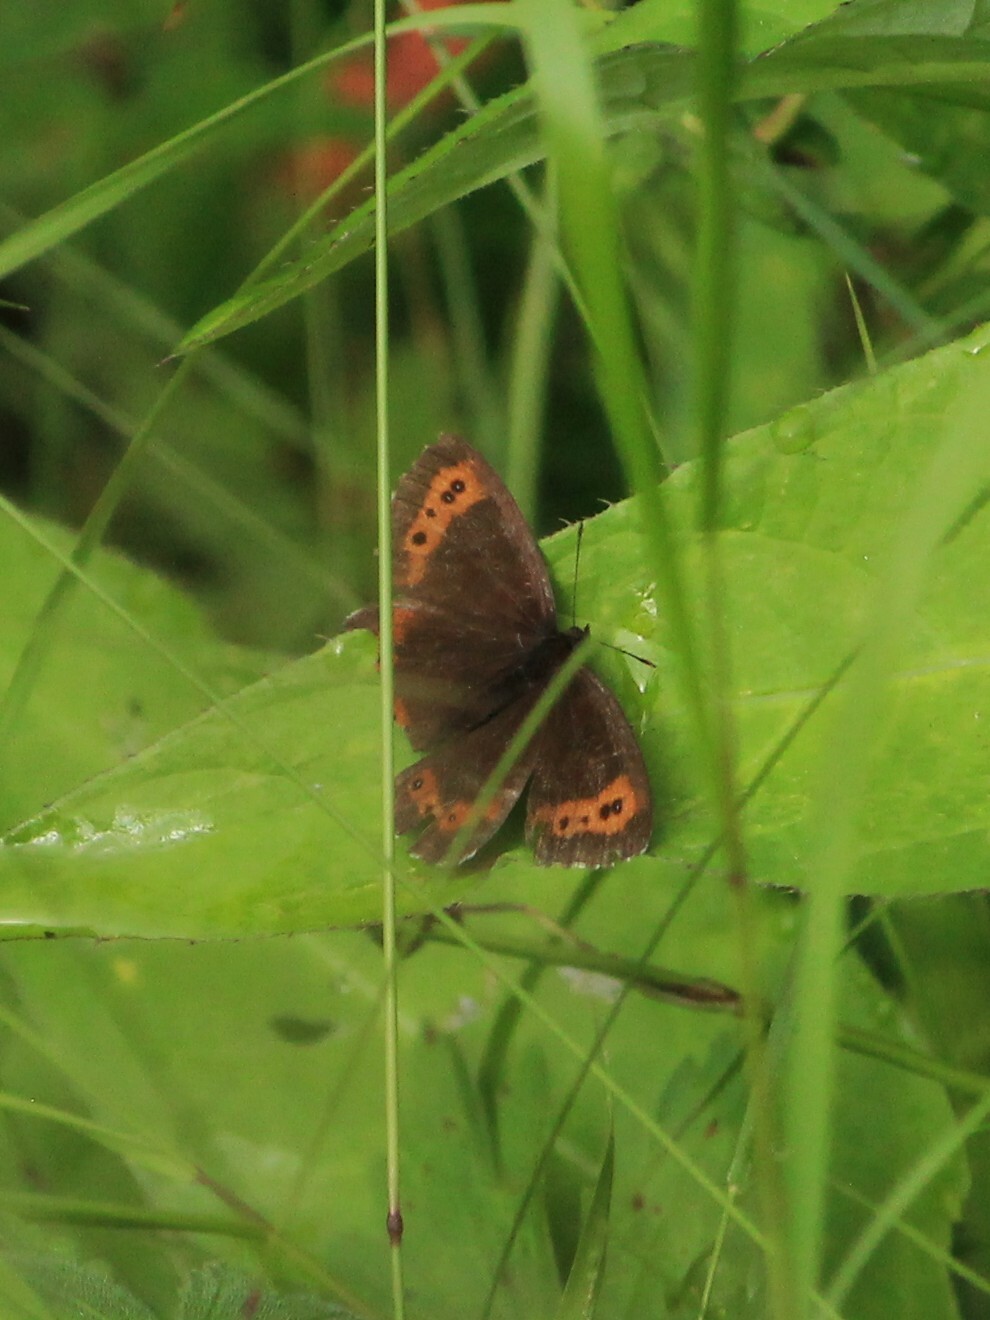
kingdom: Animalia
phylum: Arthropoda
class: Insecta
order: Lepidoptera
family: Nymphalidae
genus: Erebia
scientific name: Erebia ligea
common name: Arran brown
